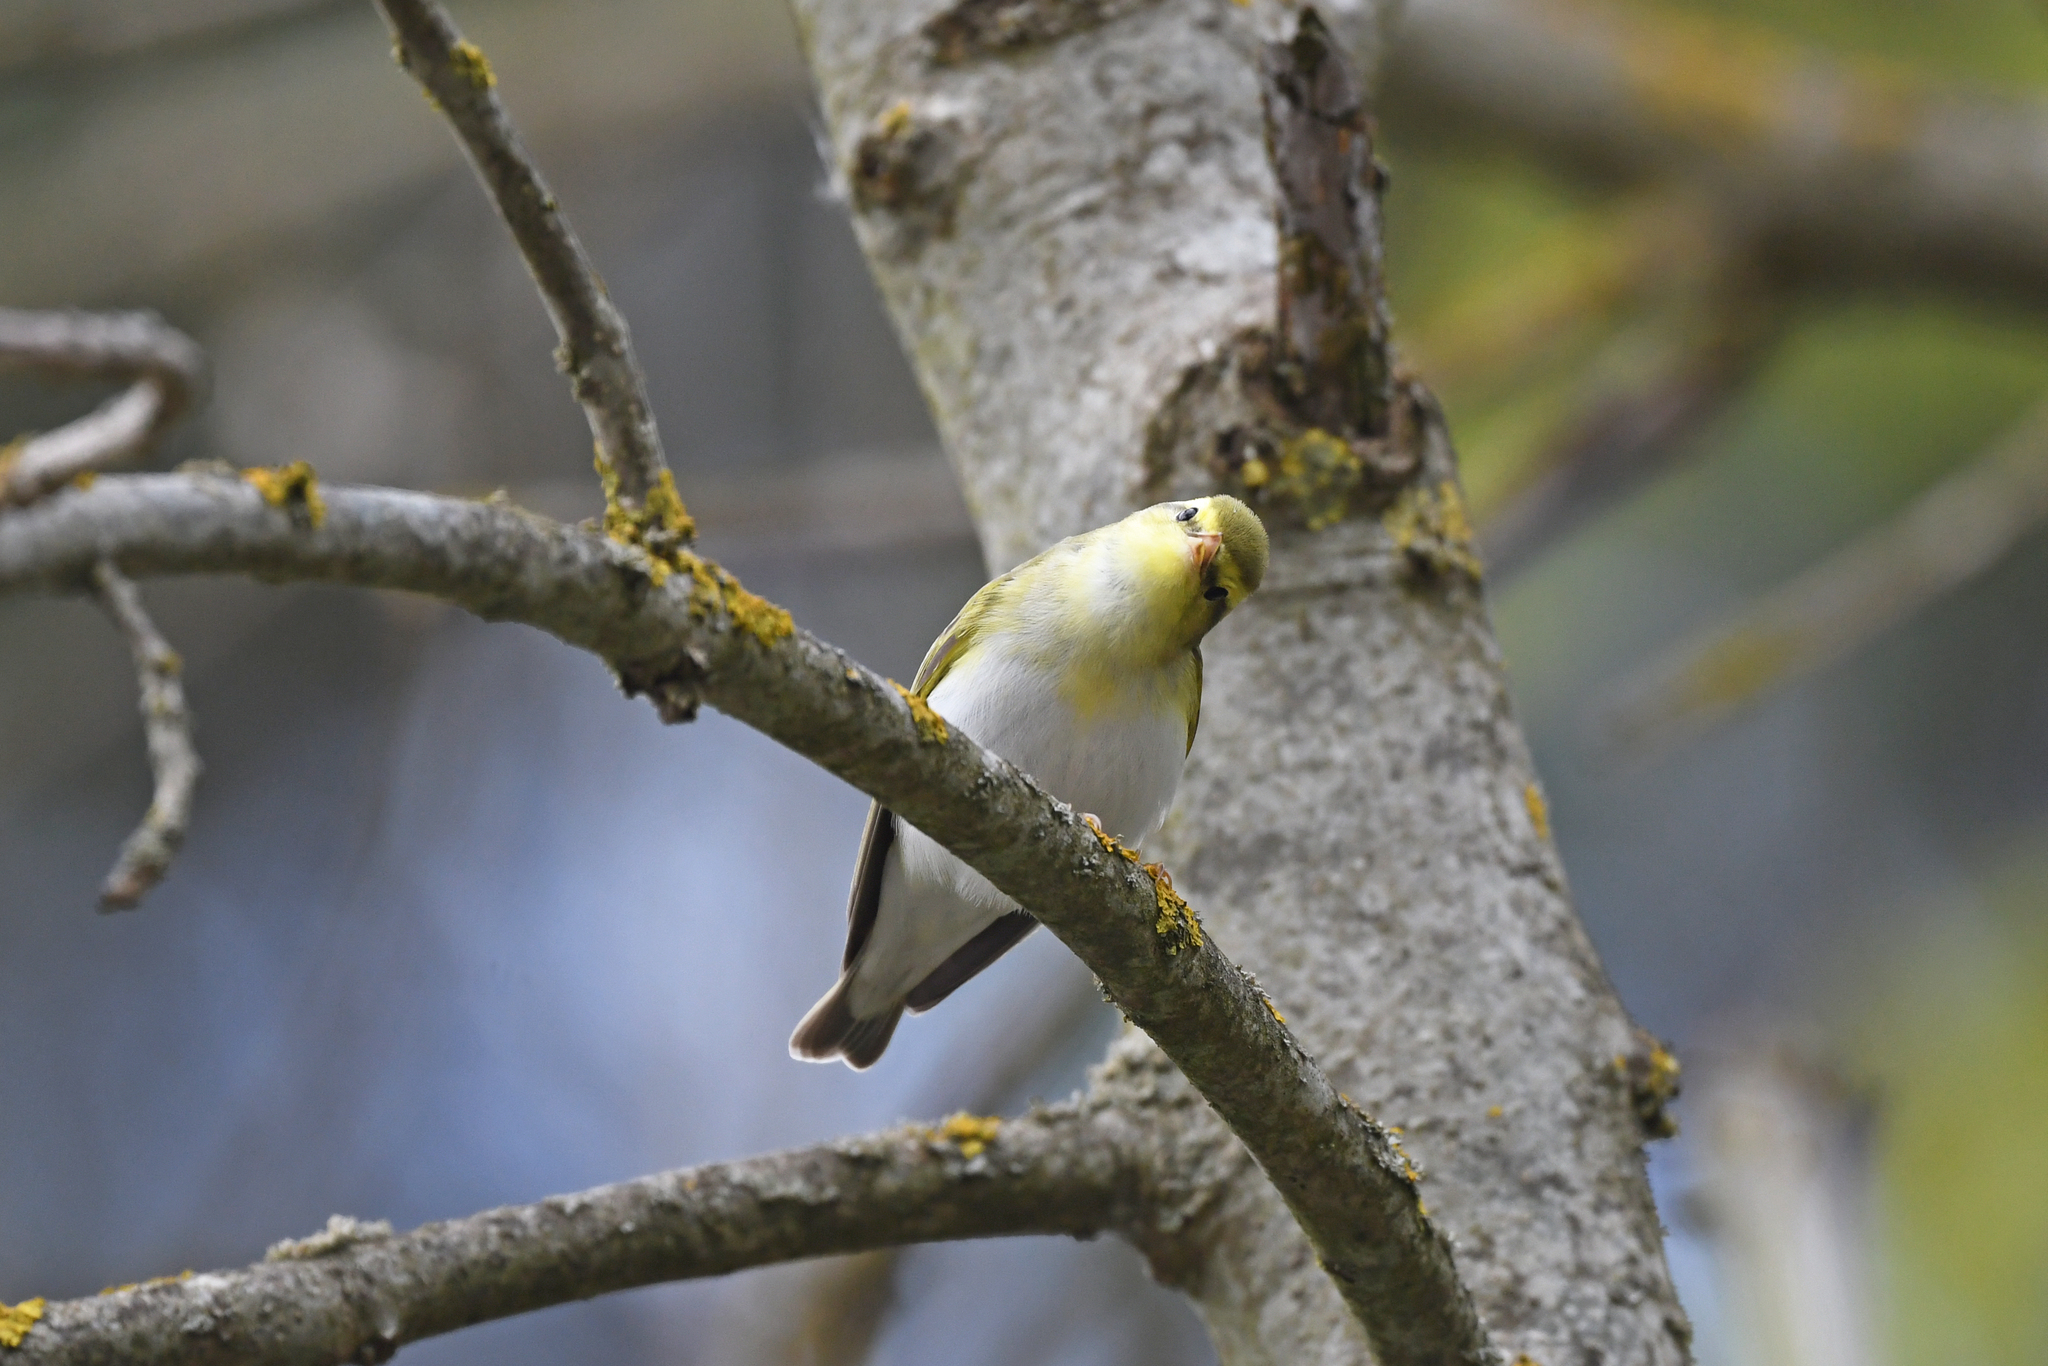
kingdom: Animalia
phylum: Chordata
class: Aves
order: Passeriformes
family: Phylloscopidae
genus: Phylloscopus
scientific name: Phylloscopus sibillatrix
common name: Wood warbler
